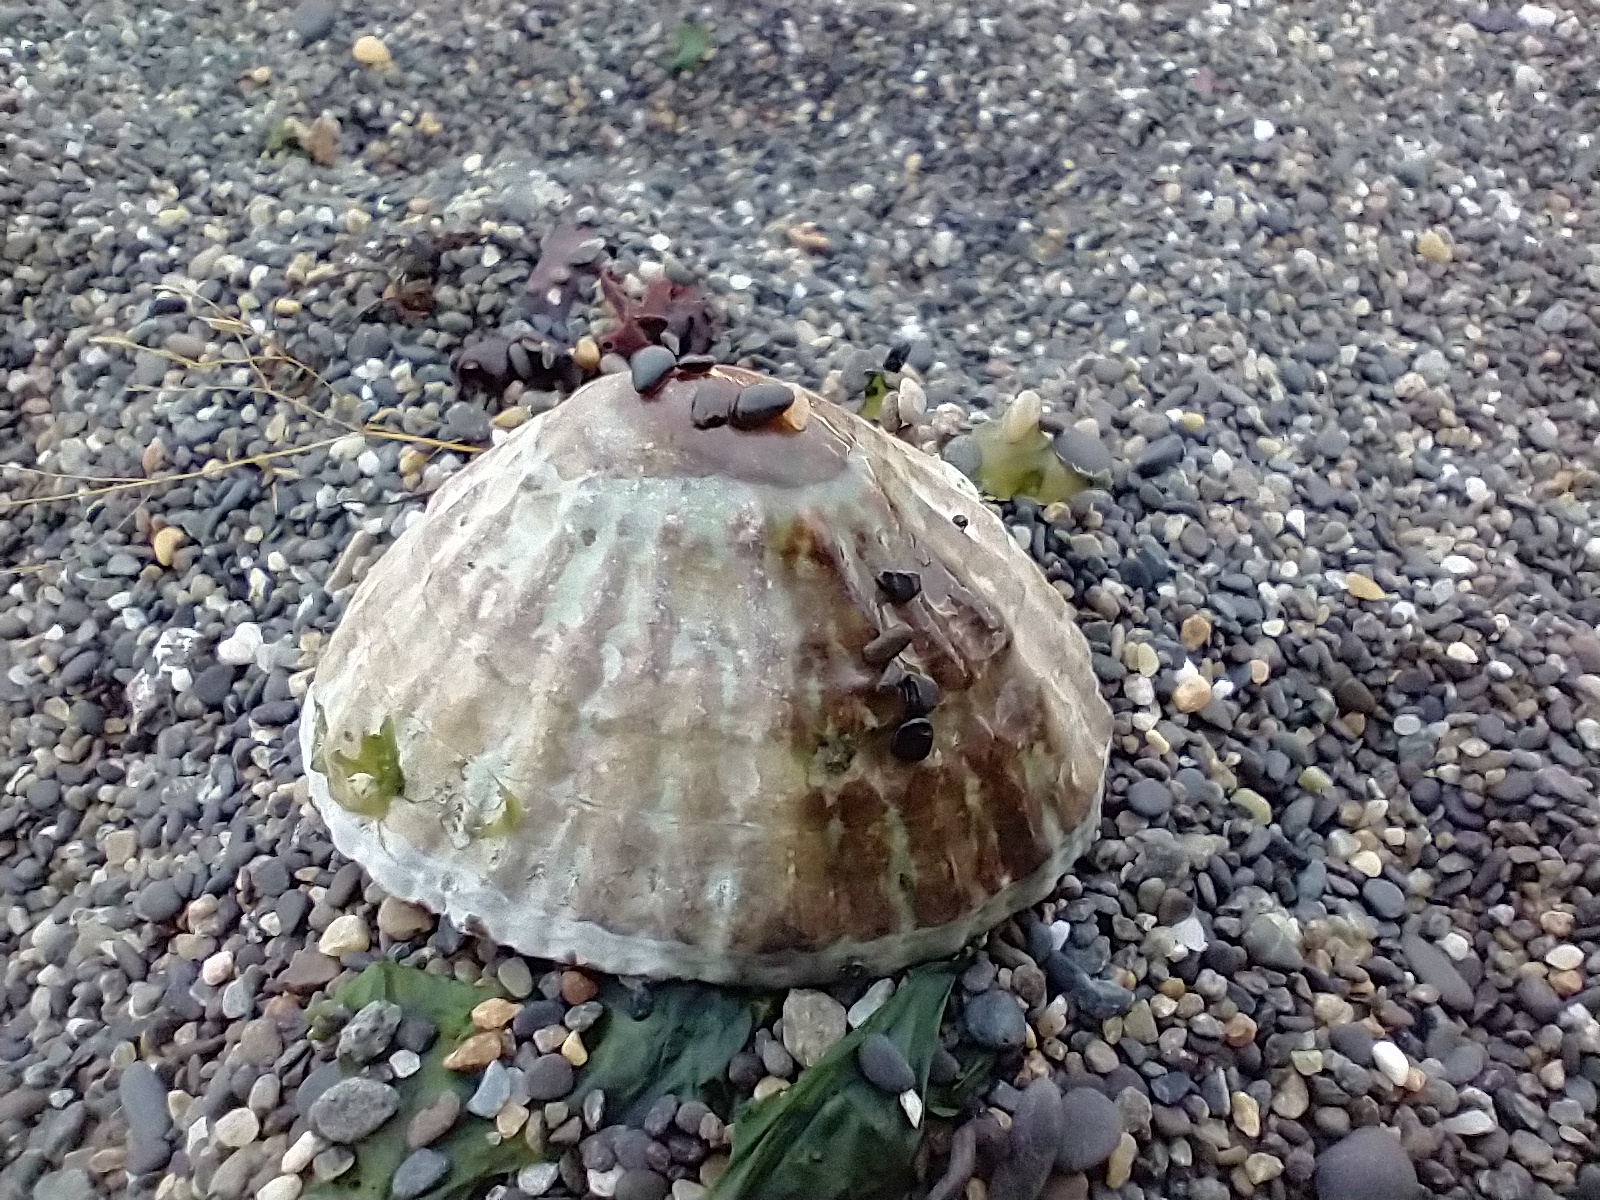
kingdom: Animalia
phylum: Mollusca
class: Gastropoda
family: Nacellidae
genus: Nacella
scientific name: Nacella magellanica
